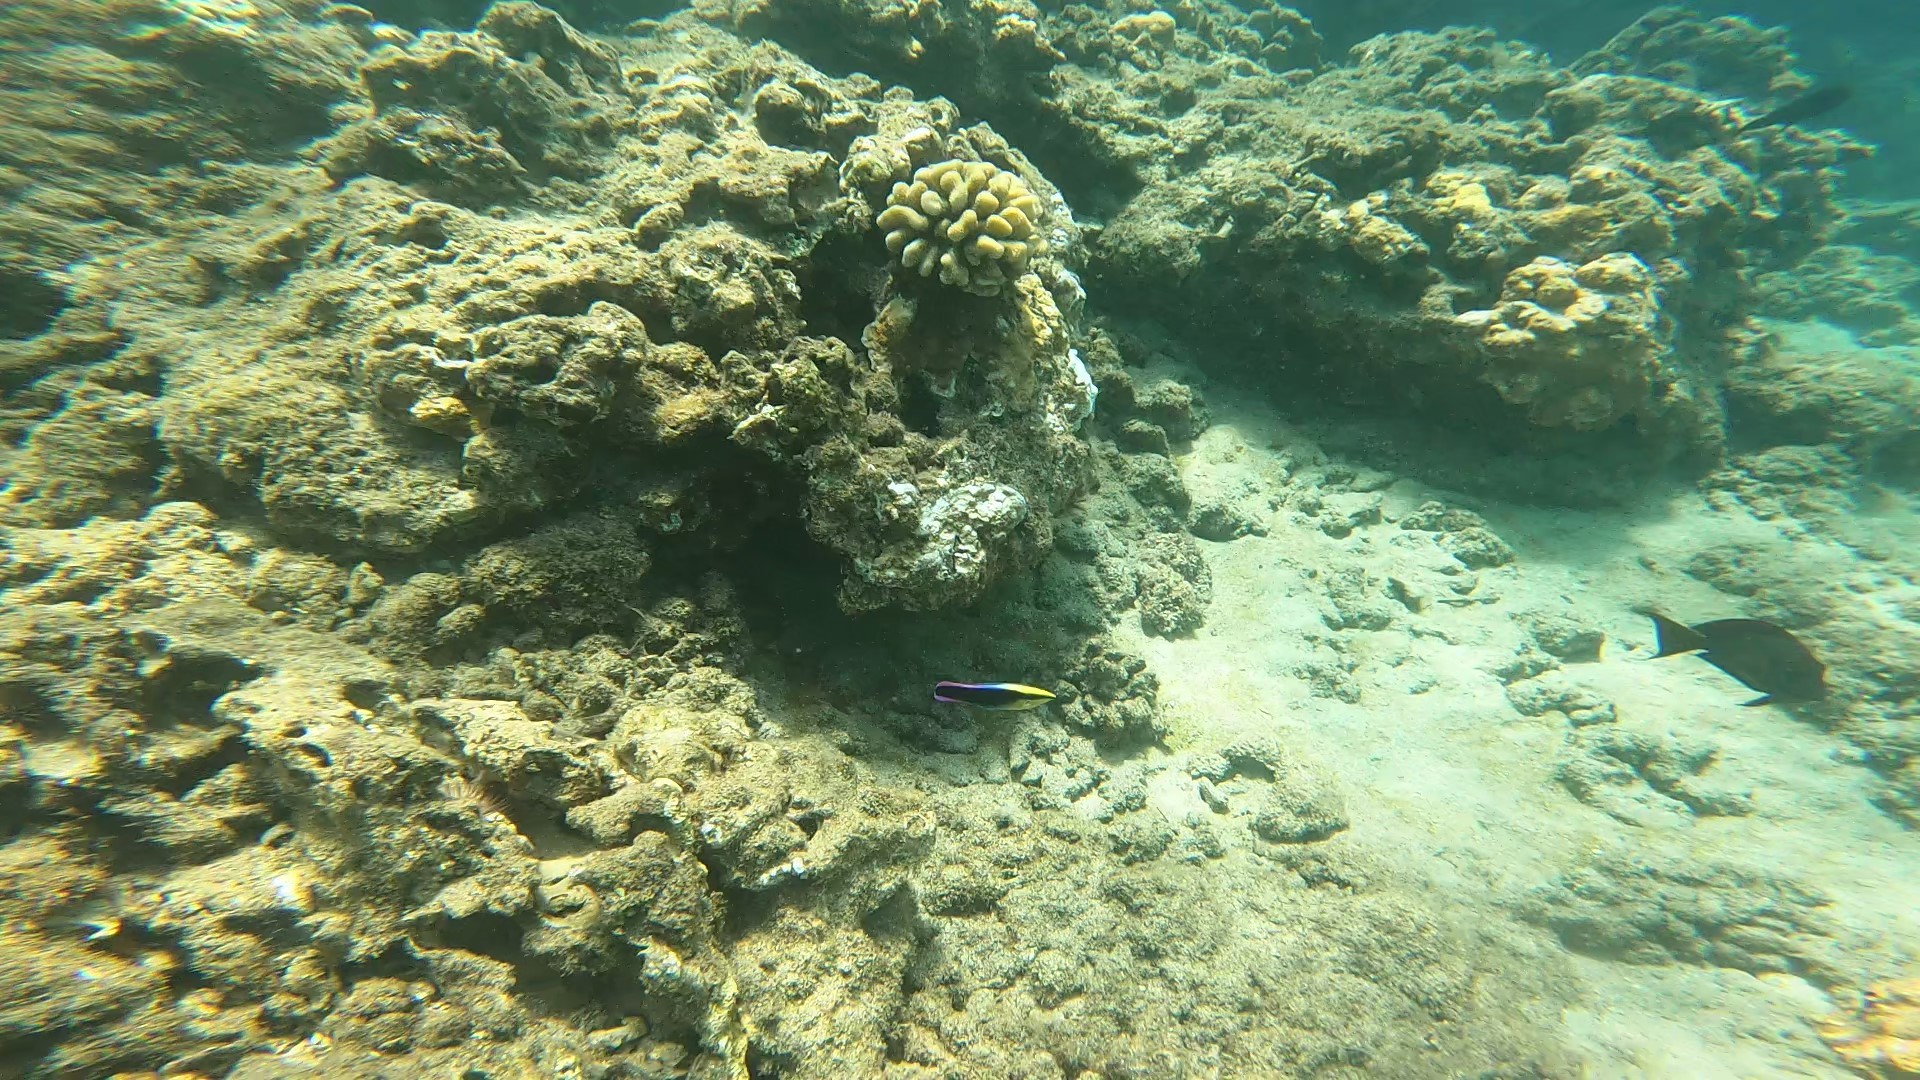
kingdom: Animalia
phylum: Chordata
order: Perciformes
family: Labridae
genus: Labroides
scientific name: Labroides phthirophagus
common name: Cleaner wrasse
